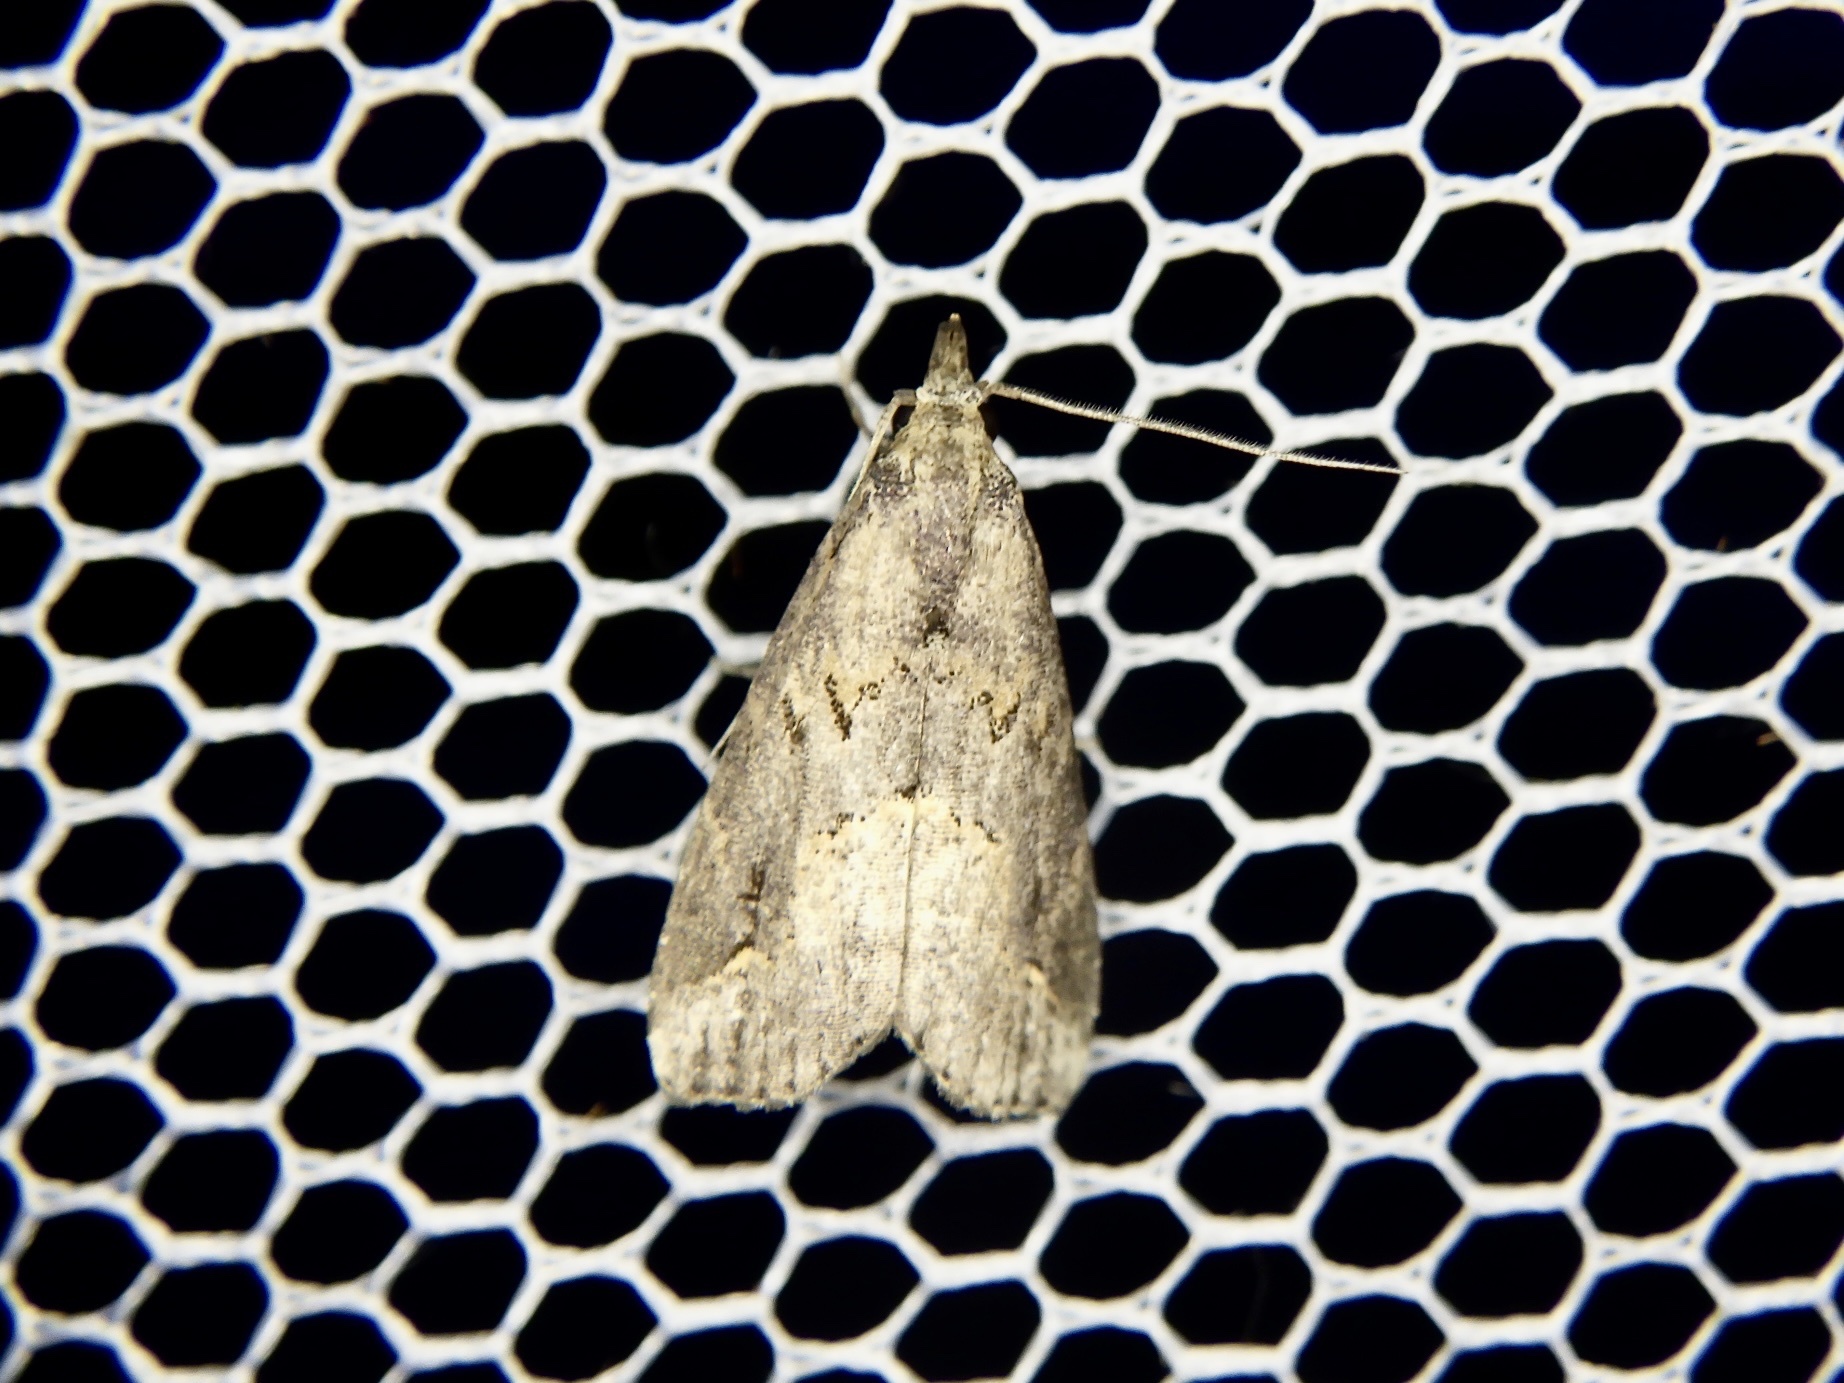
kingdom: Animalia
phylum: Arthropoda
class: Insecta
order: Lepidoptera
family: Erebidae
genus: Schrankia
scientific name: Schrankia costaestrigalis
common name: Pinion-streaked snout
